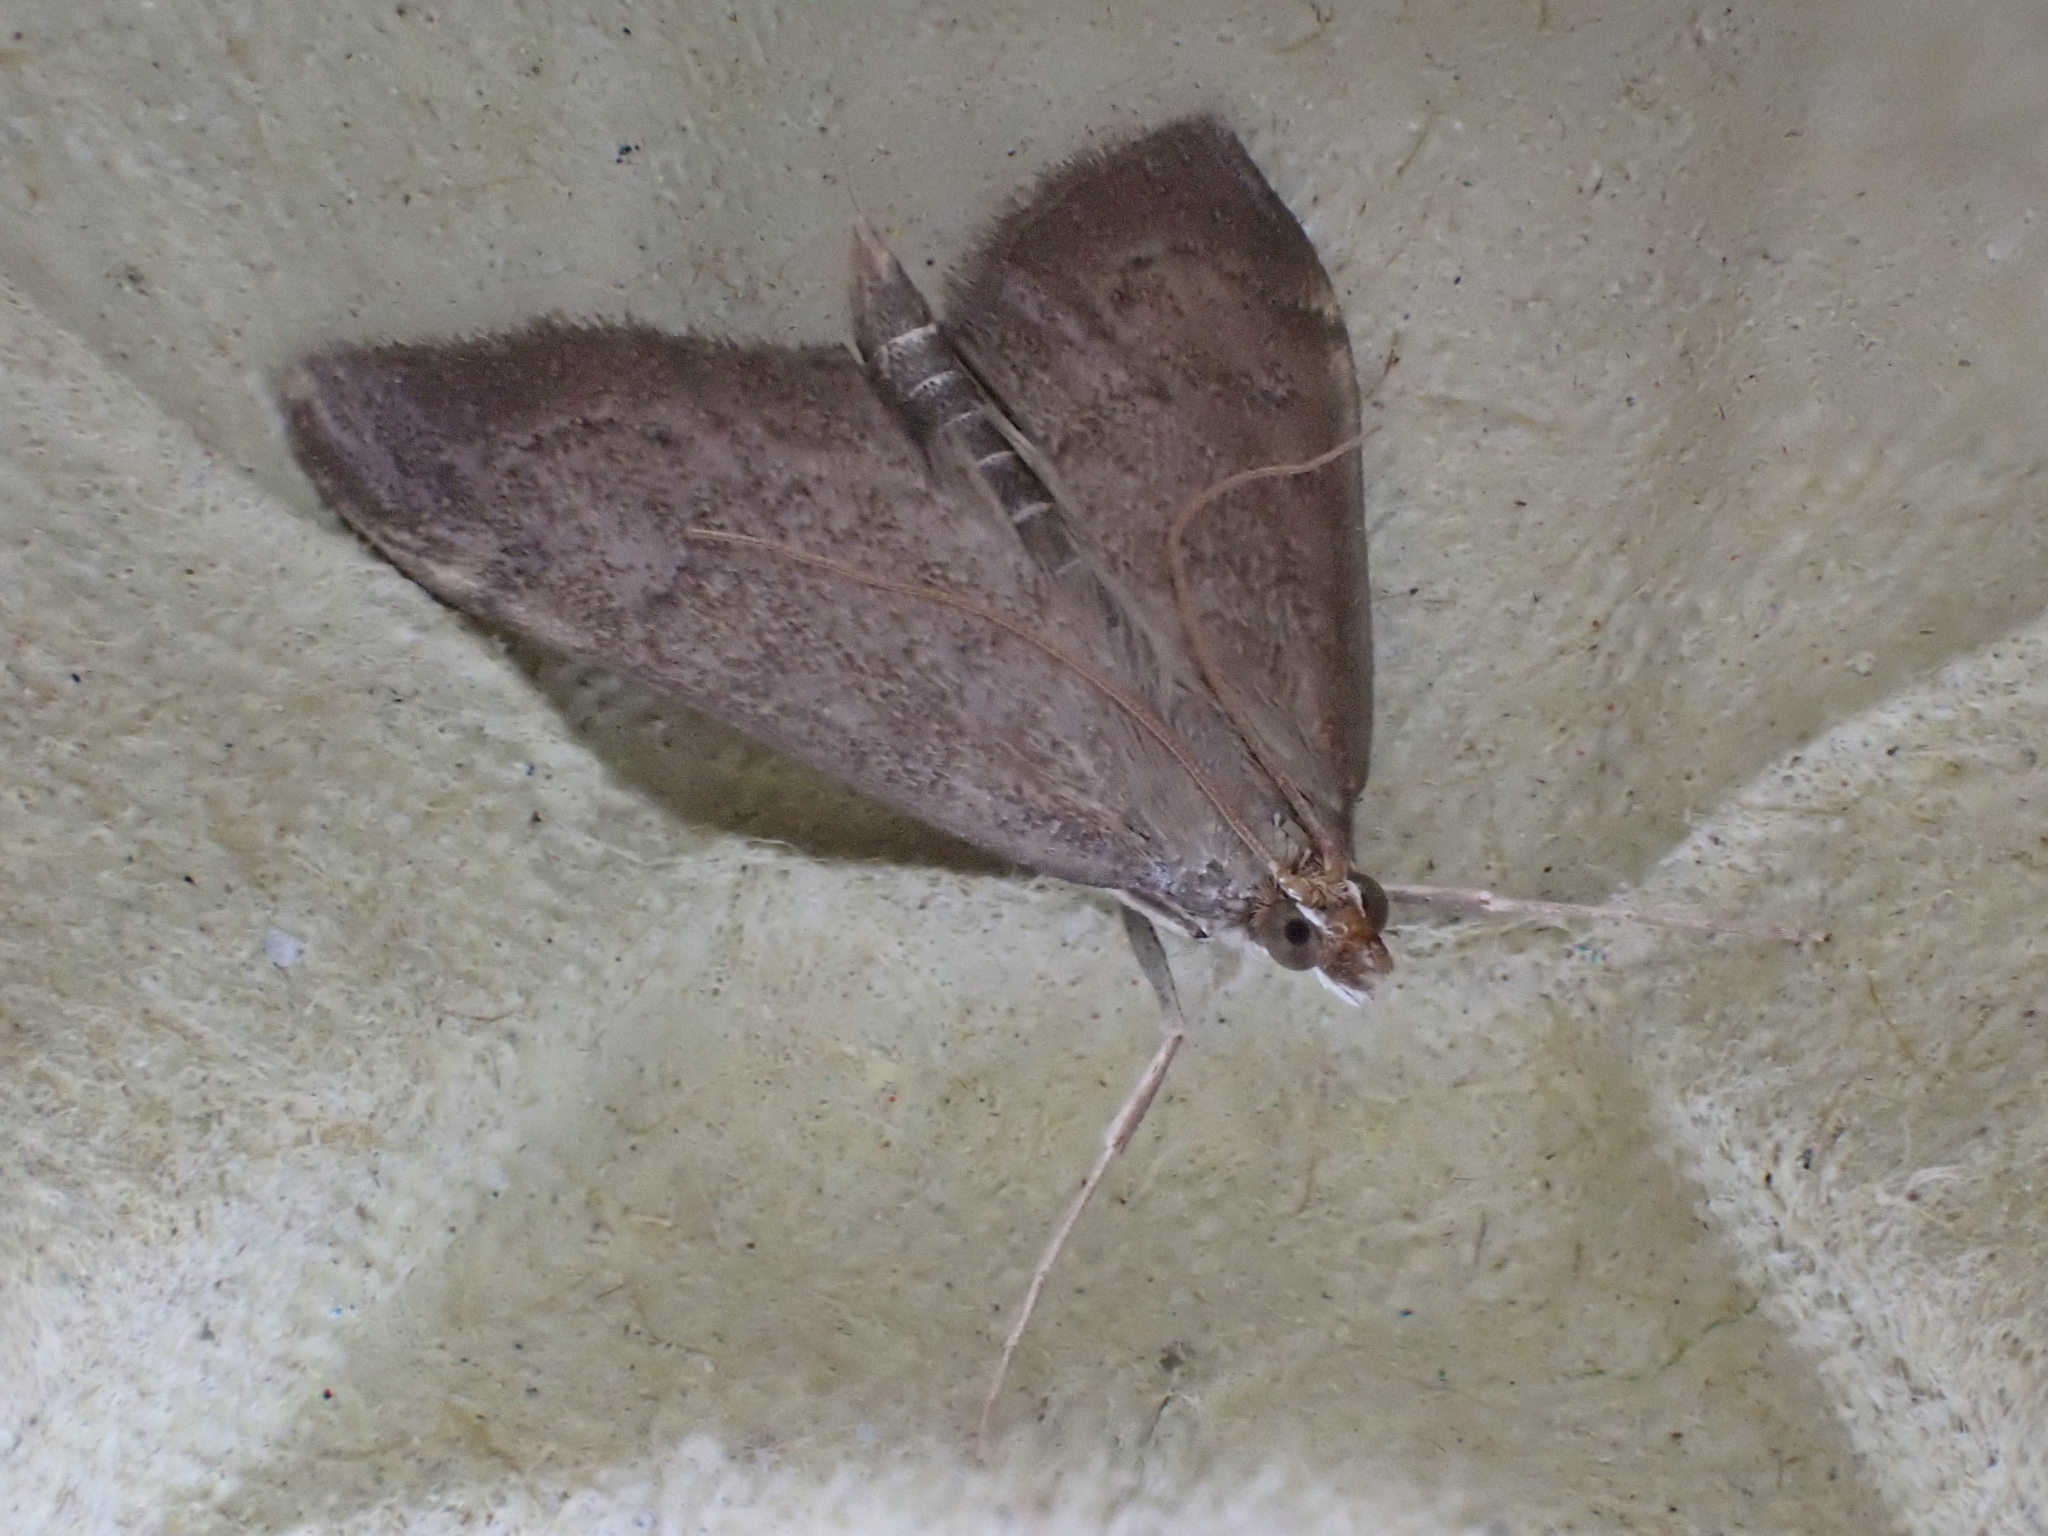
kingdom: Animalia
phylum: Arthropoda
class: Insecta
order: Lepidoptera
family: Crambidae
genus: Anania
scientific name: Anania terrealis
